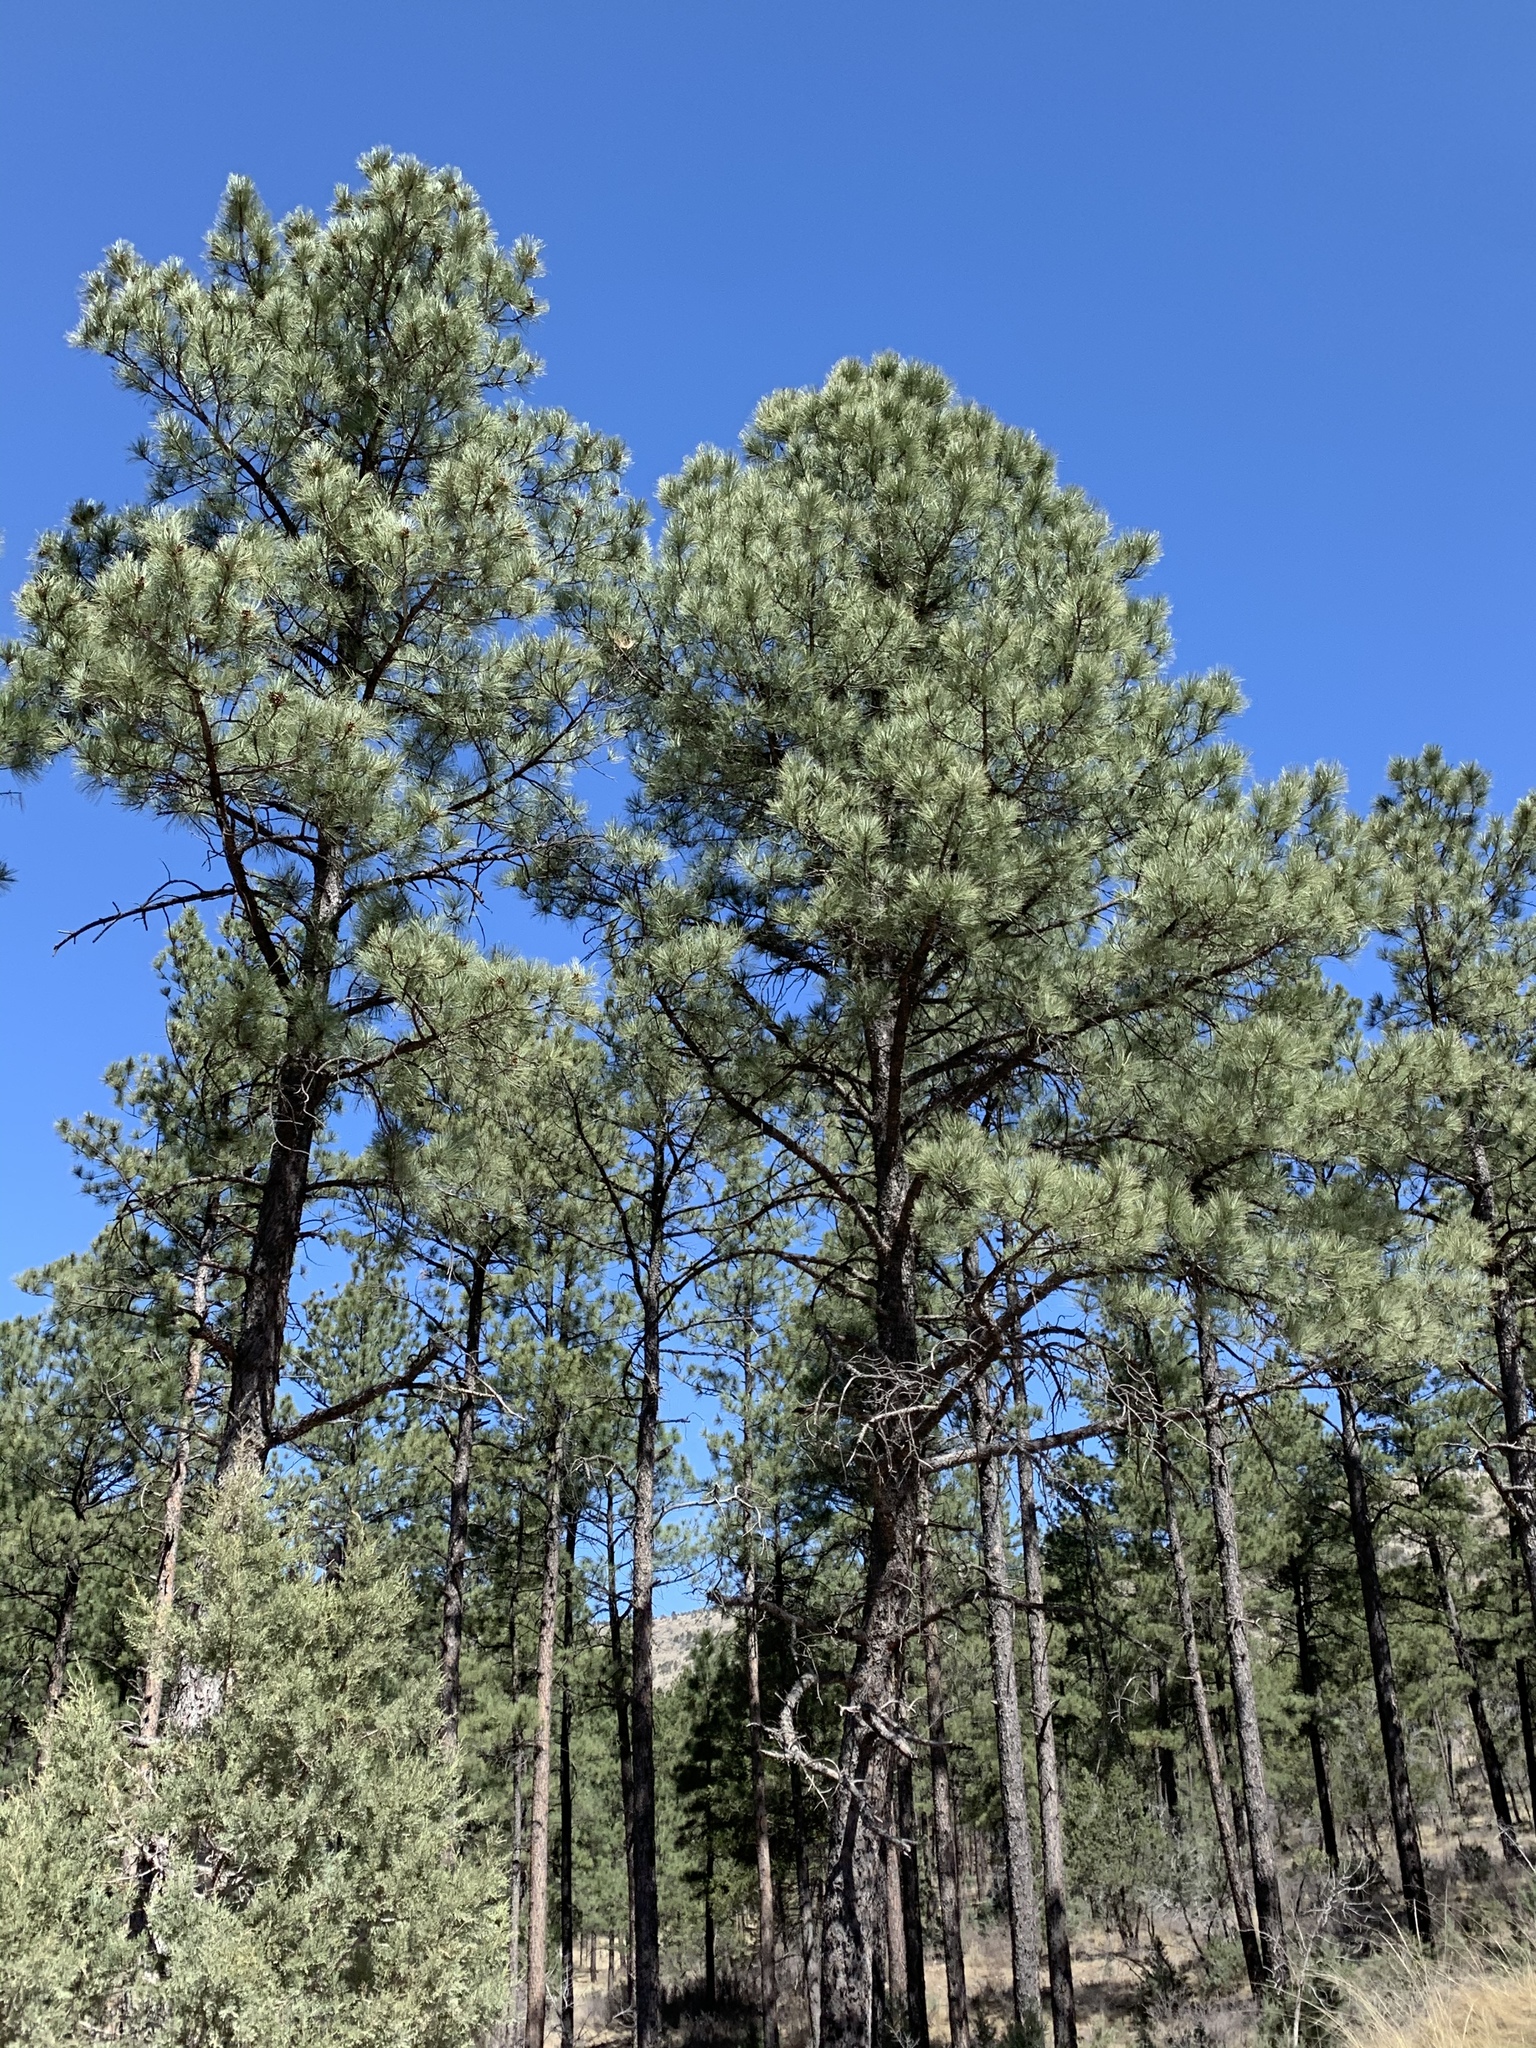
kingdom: Plantae
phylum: Tracheophyta
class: Pinopsida
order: Pinales
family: Pinaceae
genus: Pinus
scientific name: Pinus ponderosa
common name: Western yellow-pine
